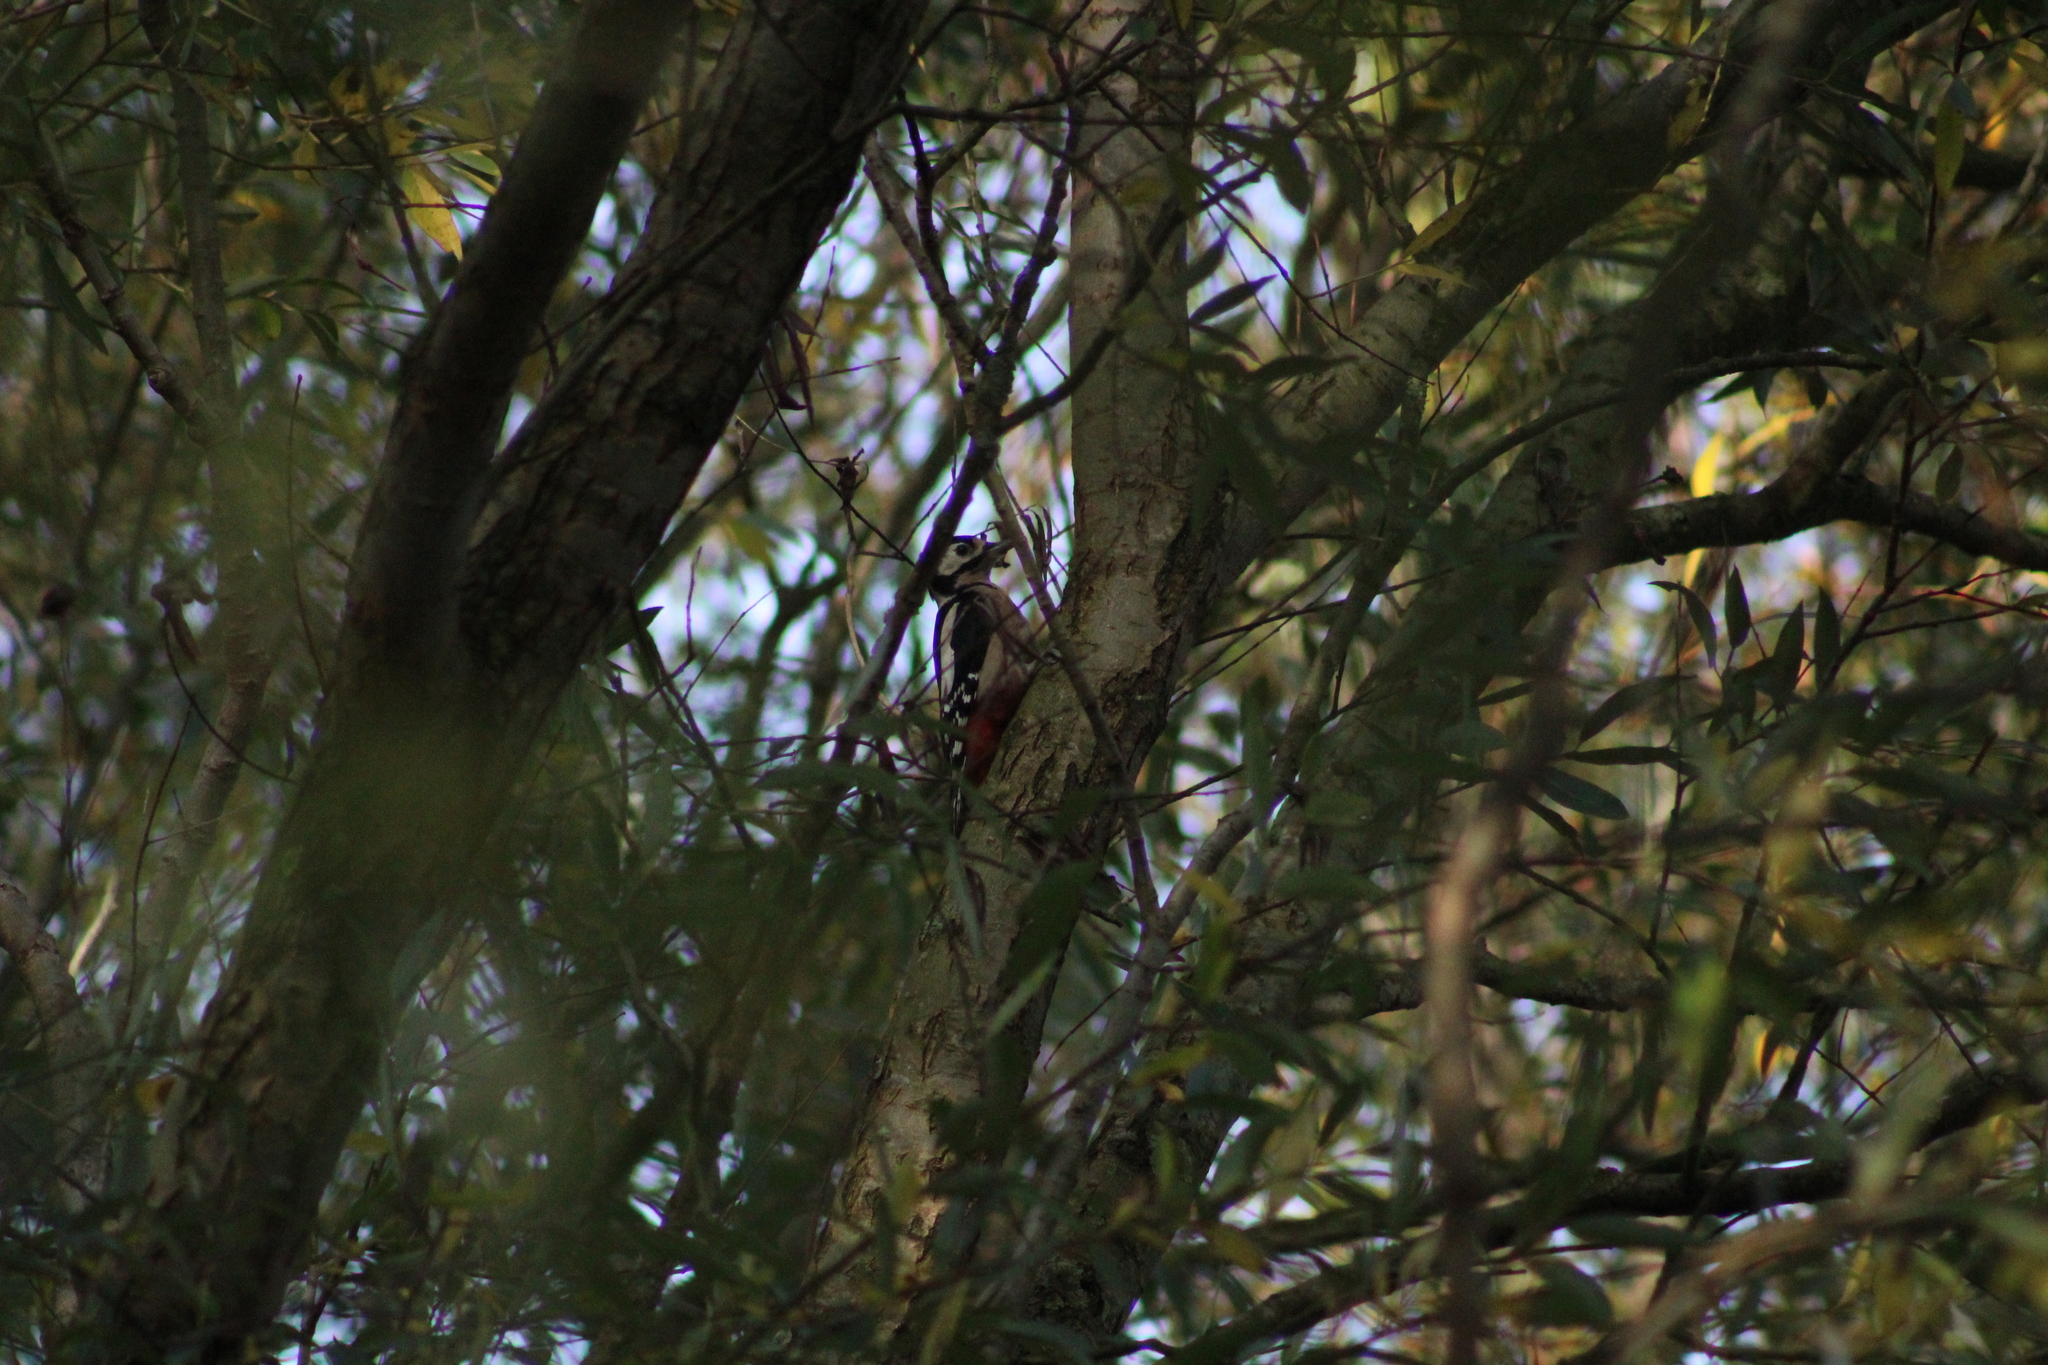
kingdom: Animalia
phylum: Chordata
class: Aves
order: Piciformes
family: Picidae
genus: Dendrocopos
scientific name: Dendrocopos major
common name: Great spotted woodpecker
